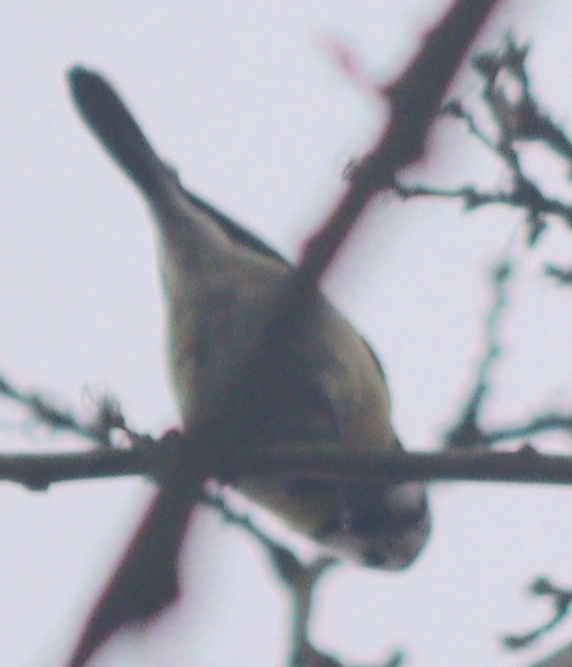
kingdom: Animalia
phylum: Chordata
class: Aves
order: Passeriformes
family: Paridae
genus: Cyanistes
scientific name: Cyanistes caeruleus
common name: Eurasian blue tit
